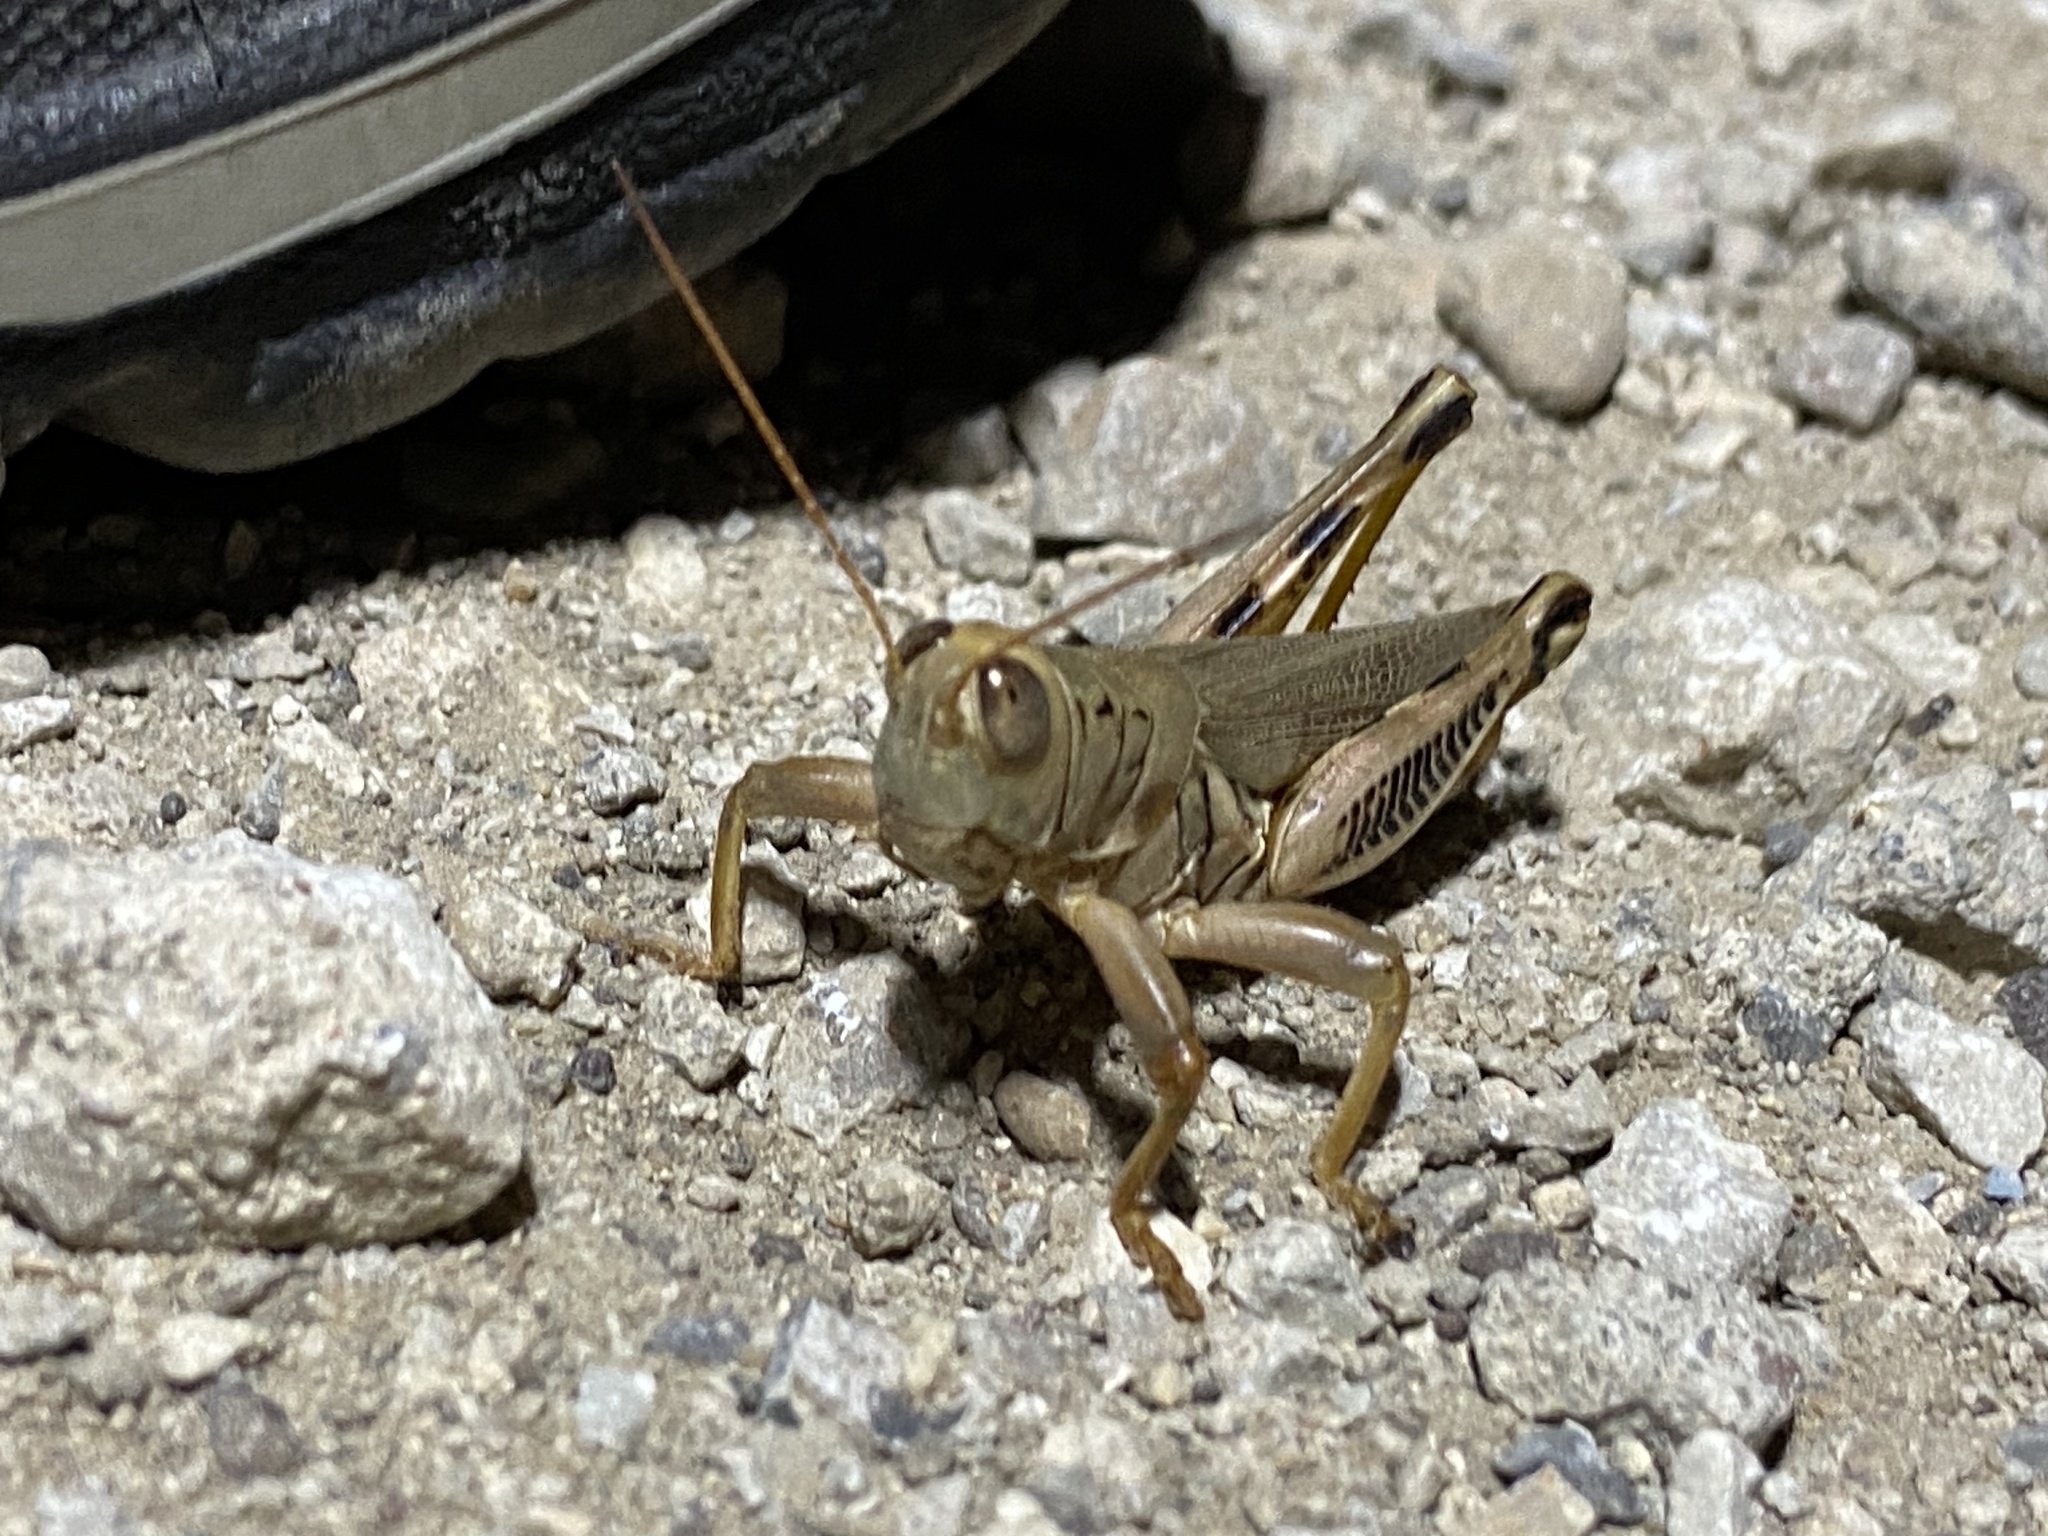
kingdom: Animalia
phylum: Arthropoda
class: Insecta
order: Orthoptera
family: Acrididae
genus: Melanoplus
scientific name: Melanoplus differentialis
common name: Differential grasshopper
